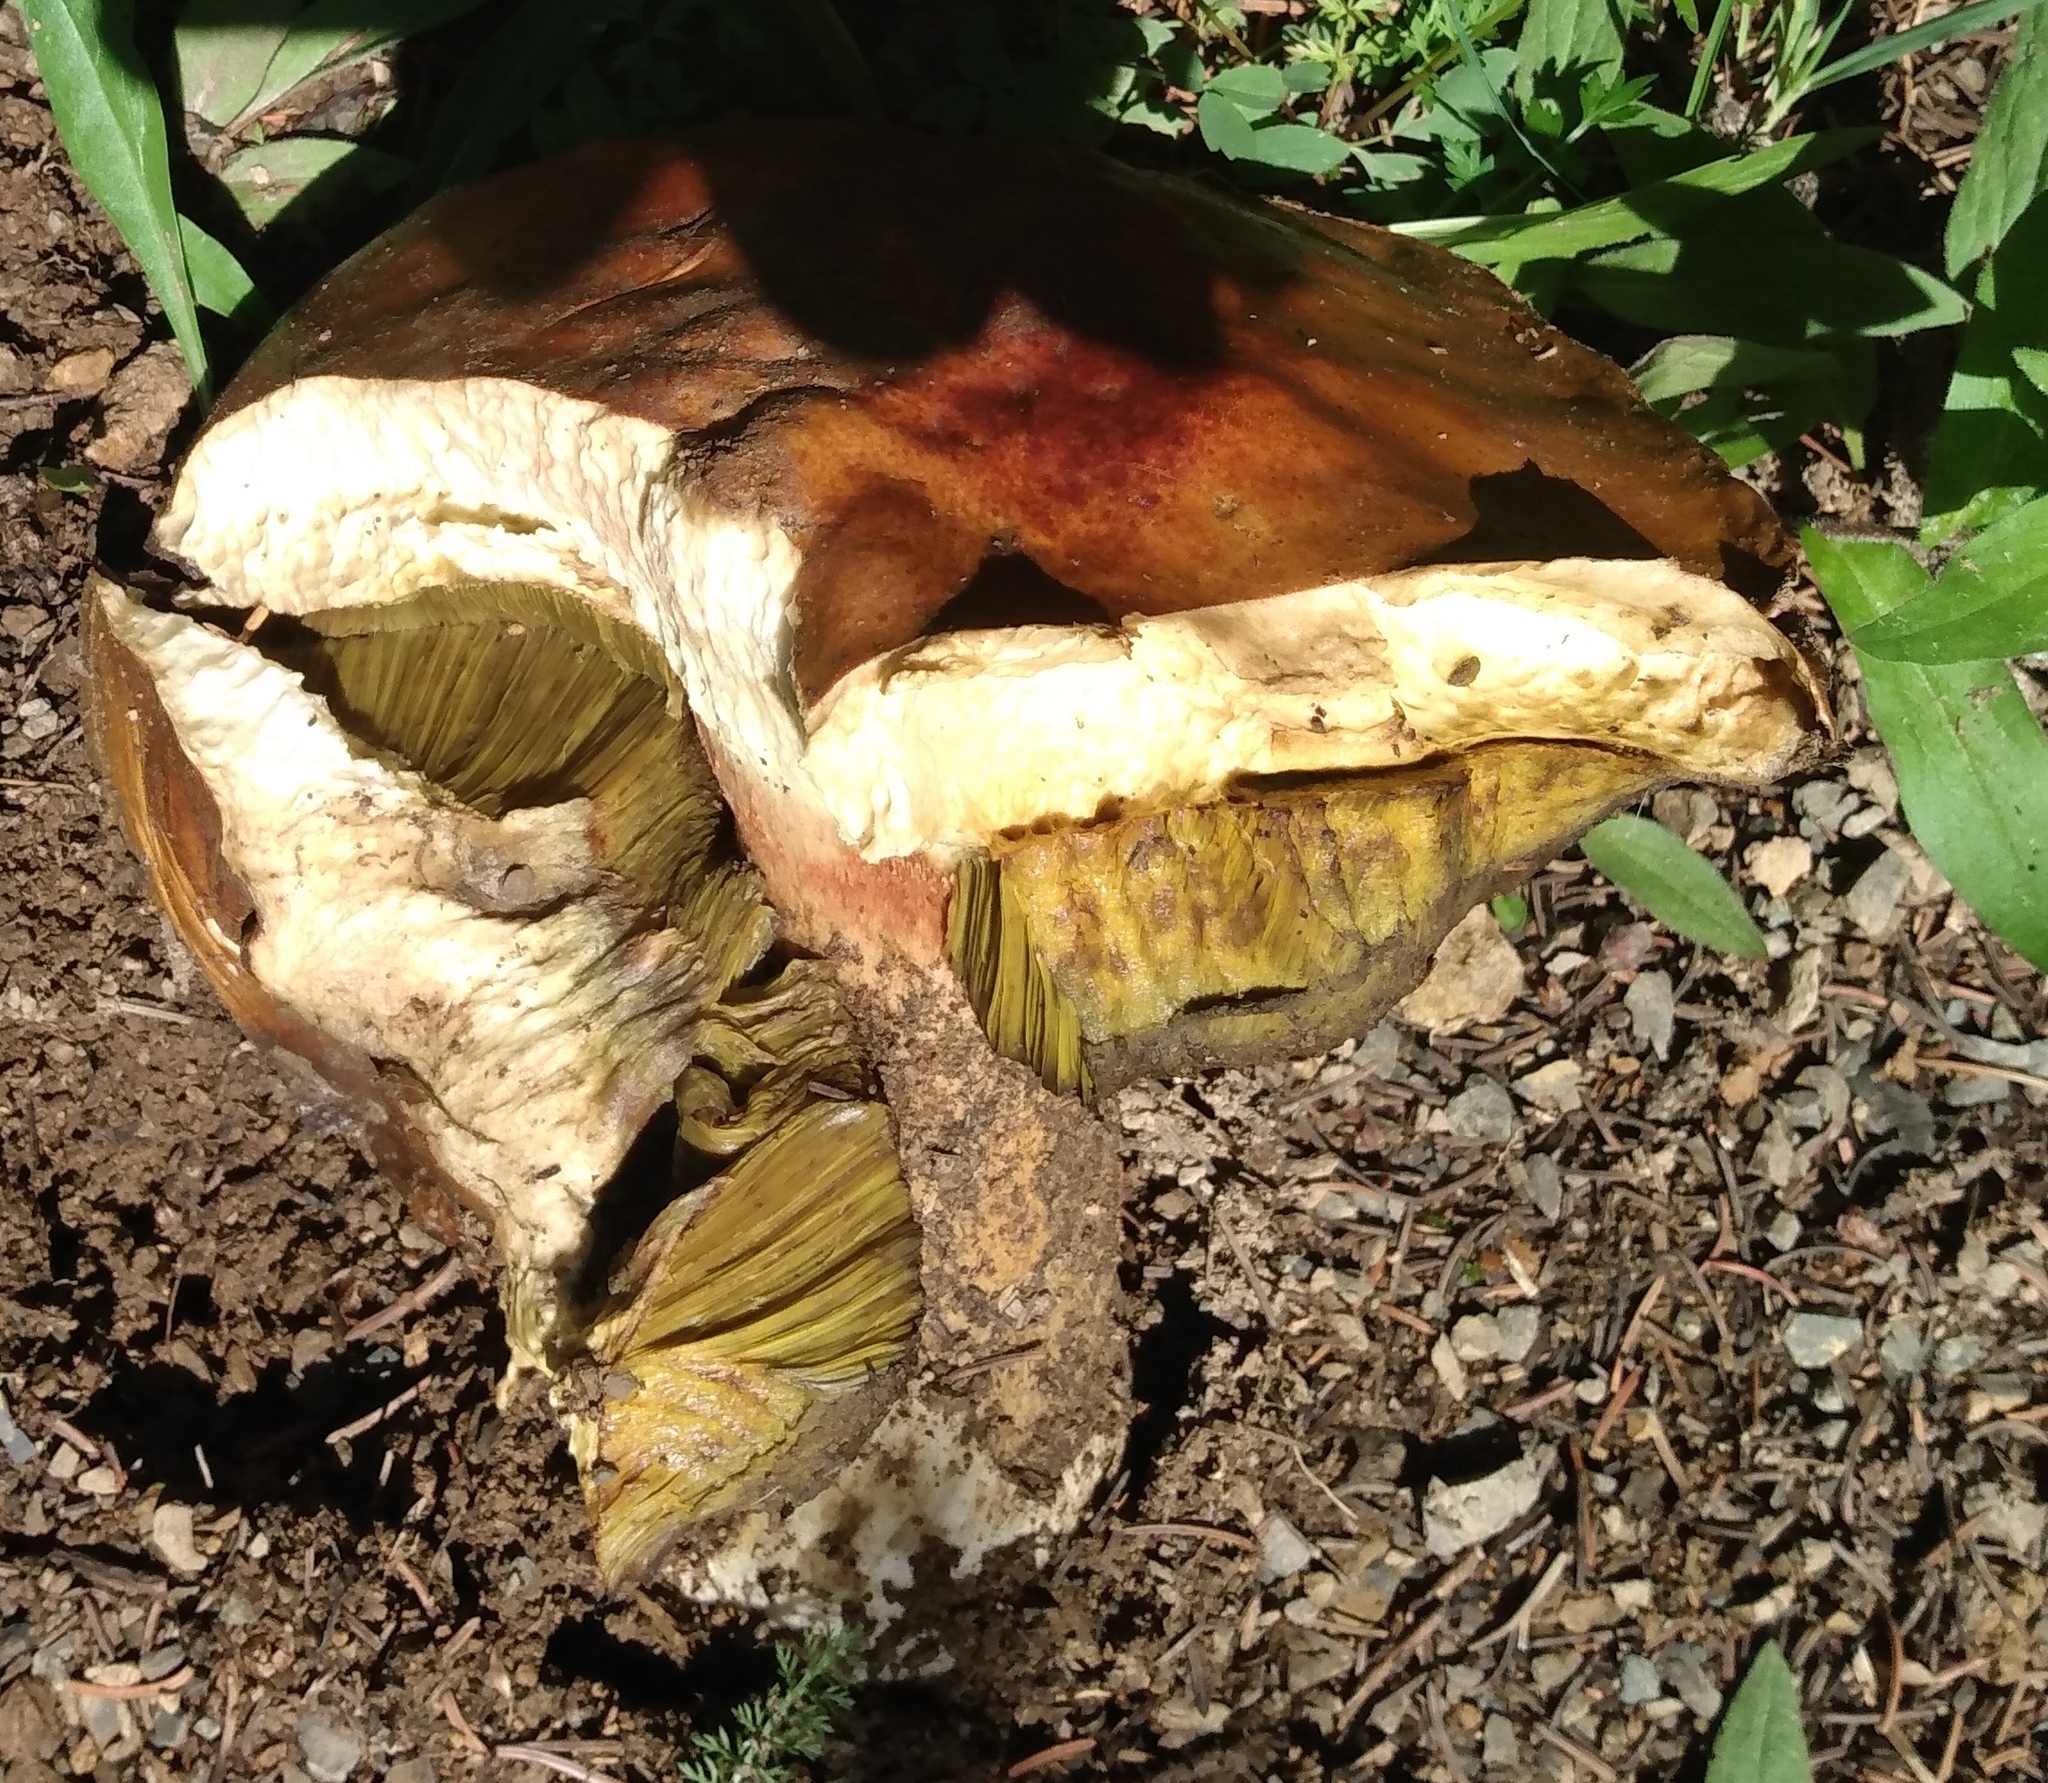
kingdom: Fungi
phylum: Basidiomycota
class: Agaricomycetes
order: Boletales
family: Boletaceae
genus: Boletus
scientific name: Boletus rubriceps
